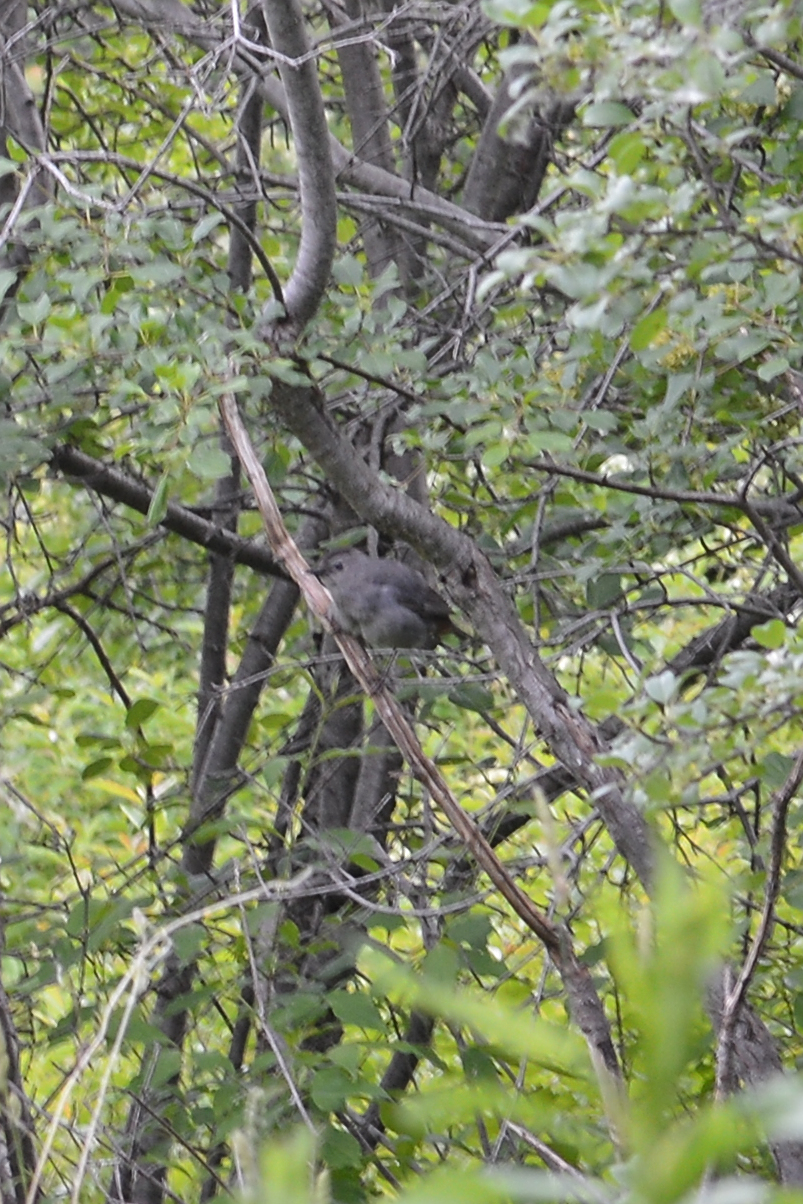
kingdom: Animalia
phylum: Chordata
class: Aves
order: Passeriformes
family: Mimidae
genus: Dumetella
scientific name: Dumetella carolinensis
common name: Gray catbird
